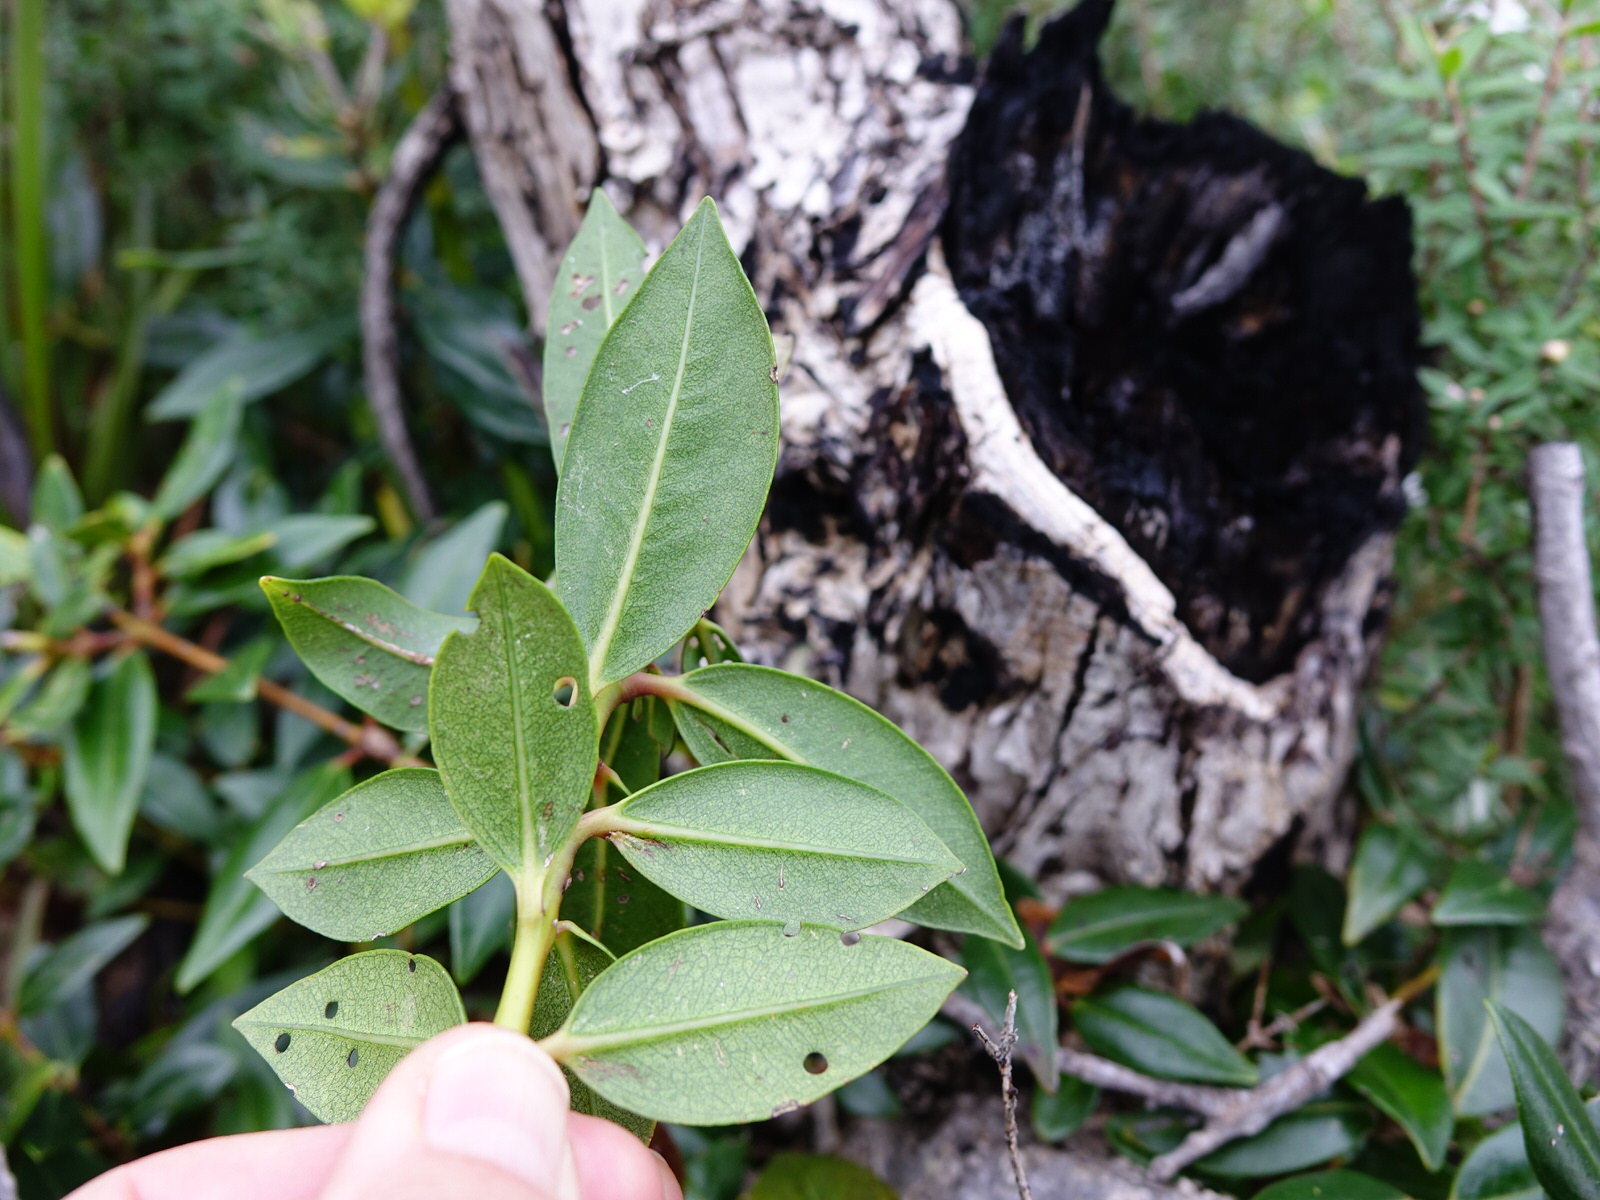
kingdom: Plantae
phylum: Tracheophyta
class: Magnoliopsida
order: Myrtales
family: Myrtaceae
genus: Metrosideros
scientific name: Metrosideros excelsa
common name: New zealand christmastree
